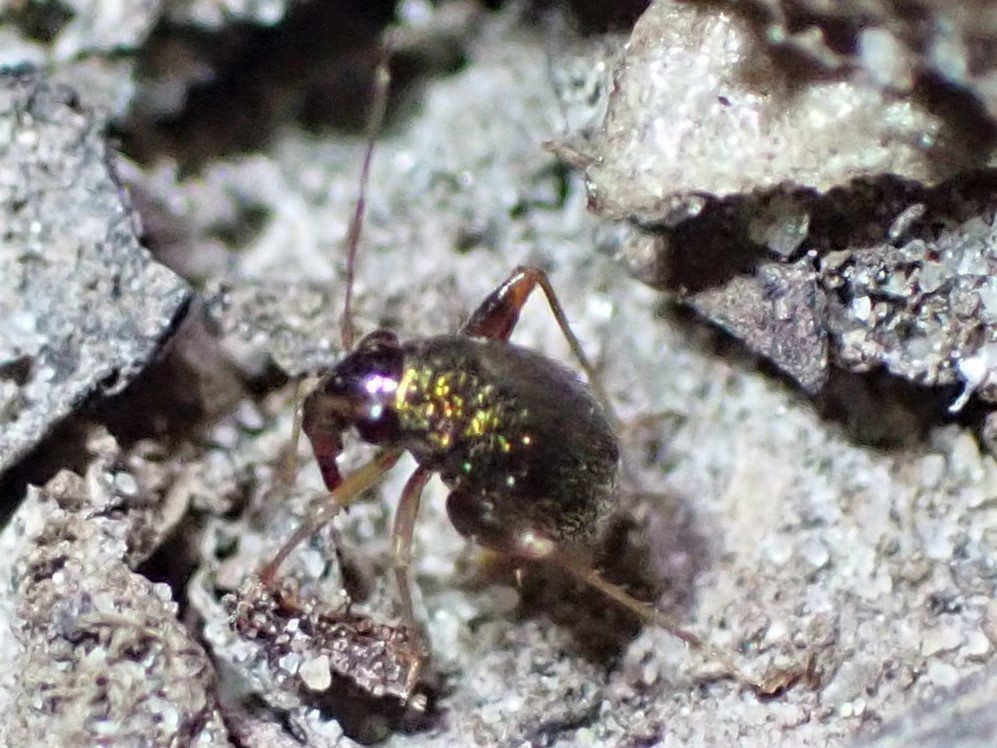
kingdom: Animalia
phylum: Arthropoda
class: Insecta
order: Hemiptera
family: Miridae
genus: Halticus
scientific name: Halticus minutus
